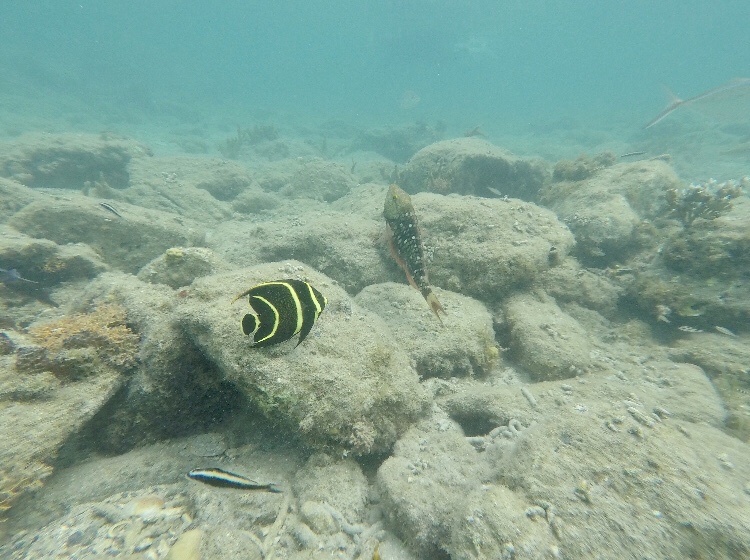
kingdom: Animalia
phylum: Chordata
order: Perciformes
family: Pomacanthidae
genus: Pomacanthus
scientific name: Pomacanthus paru
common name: French angelfish
